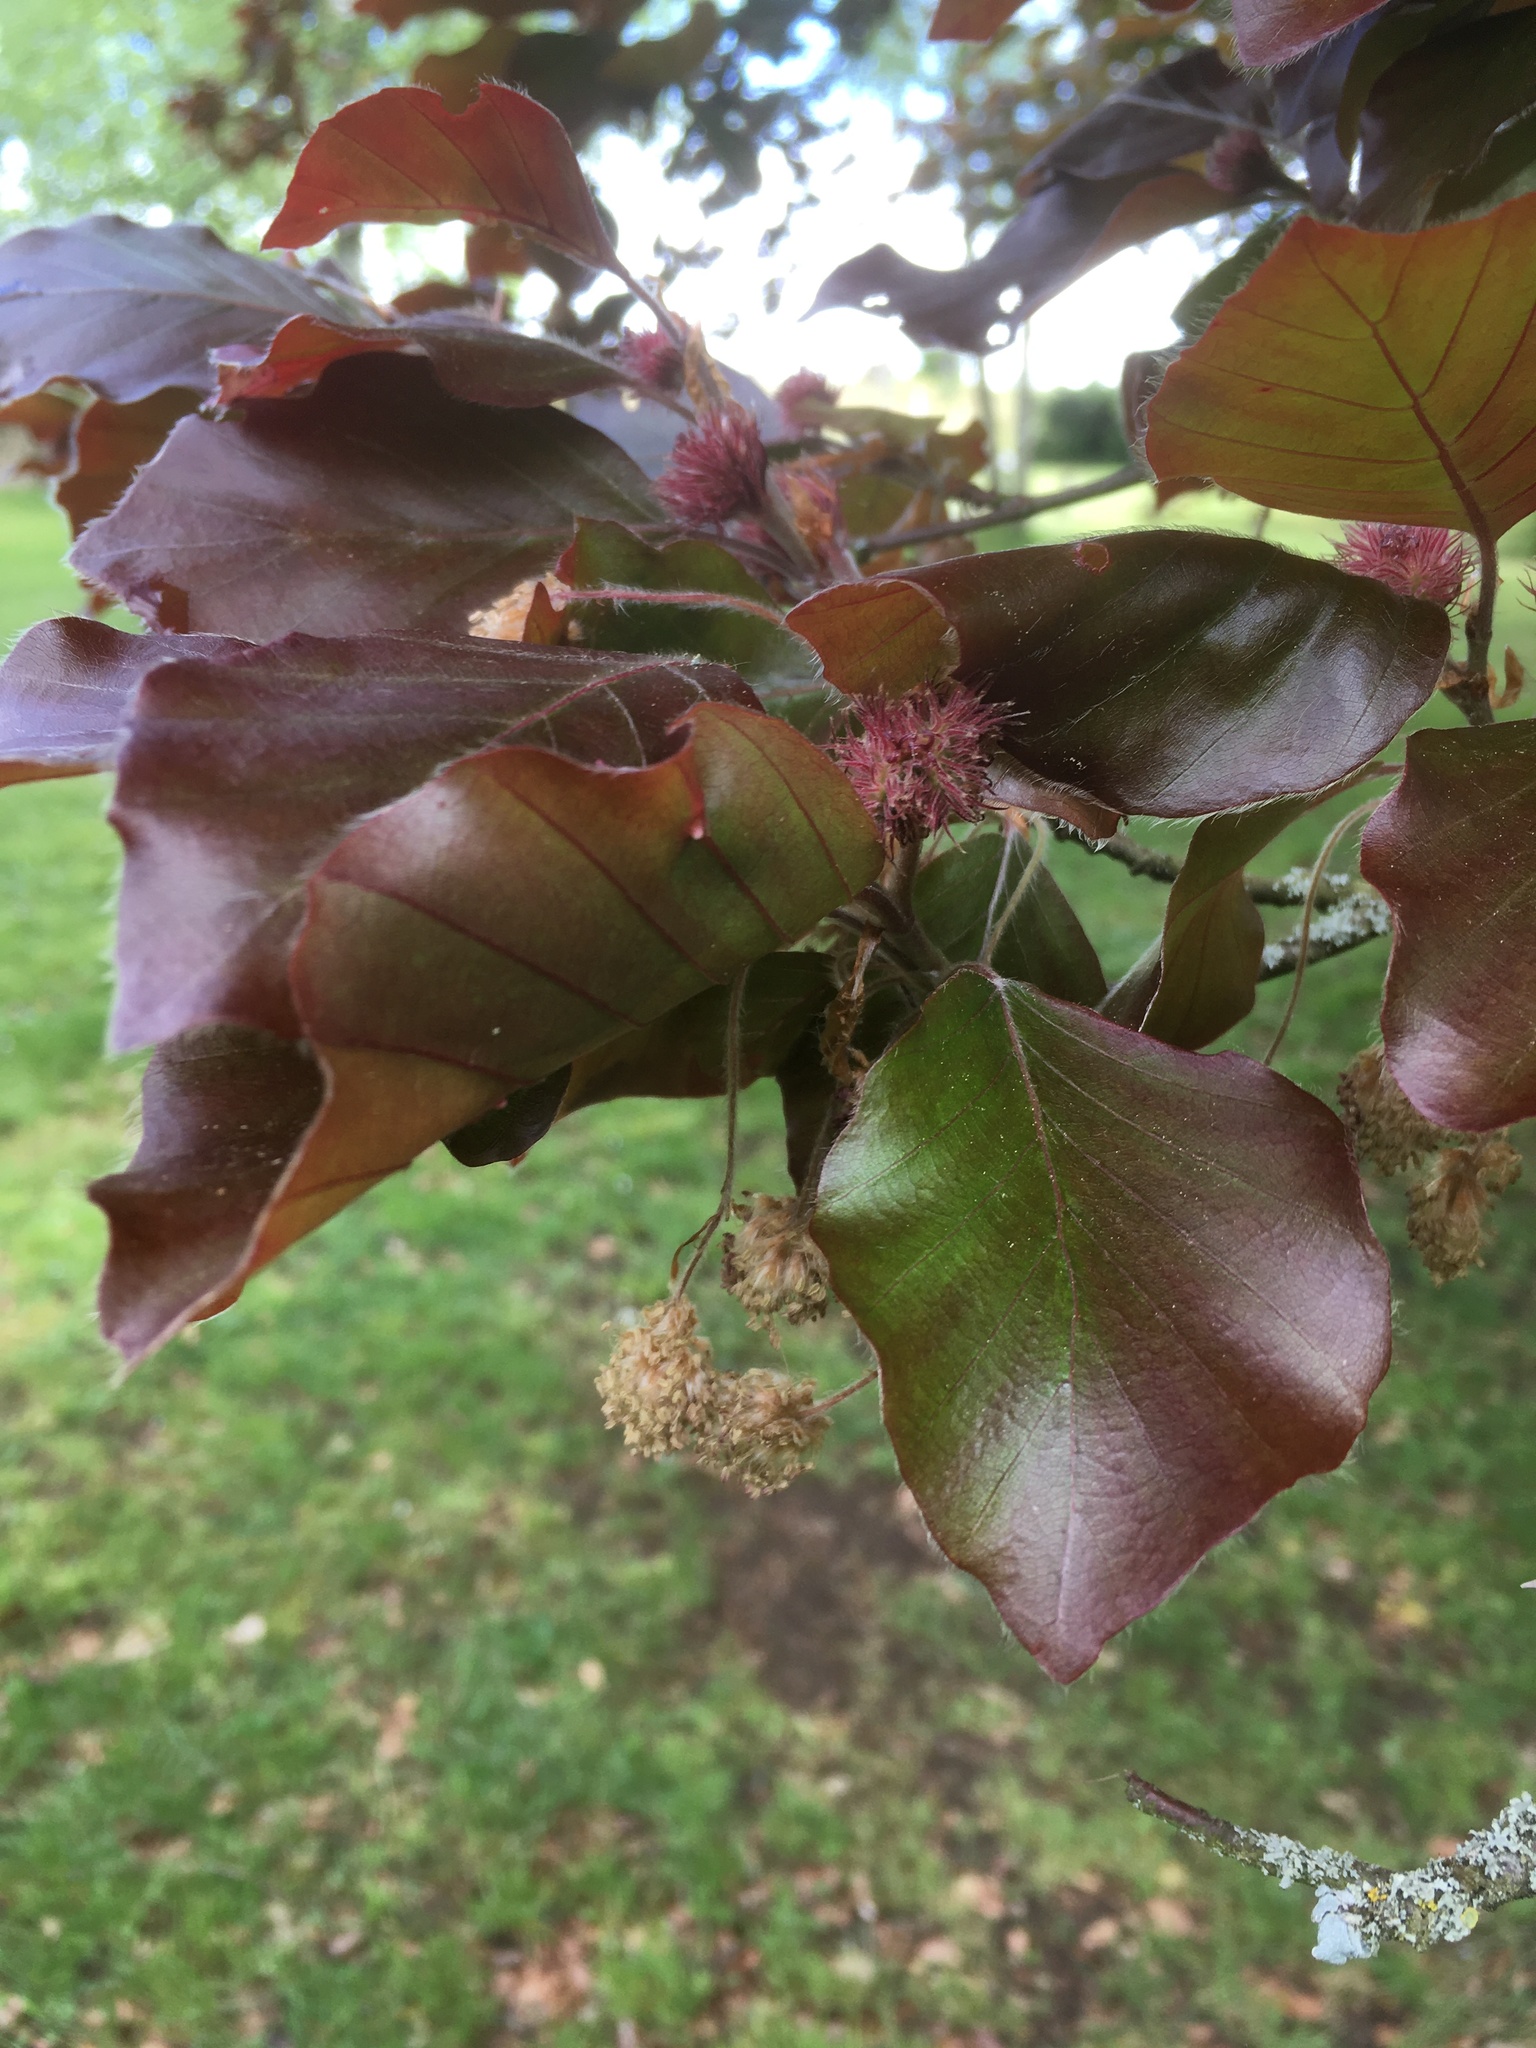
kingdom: Plantae
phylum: Tracheophyta
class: Magnoliopsida
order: Fagales
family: Fagaceae
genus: Fagus
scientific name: Fagus sylvatica
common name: Beech
